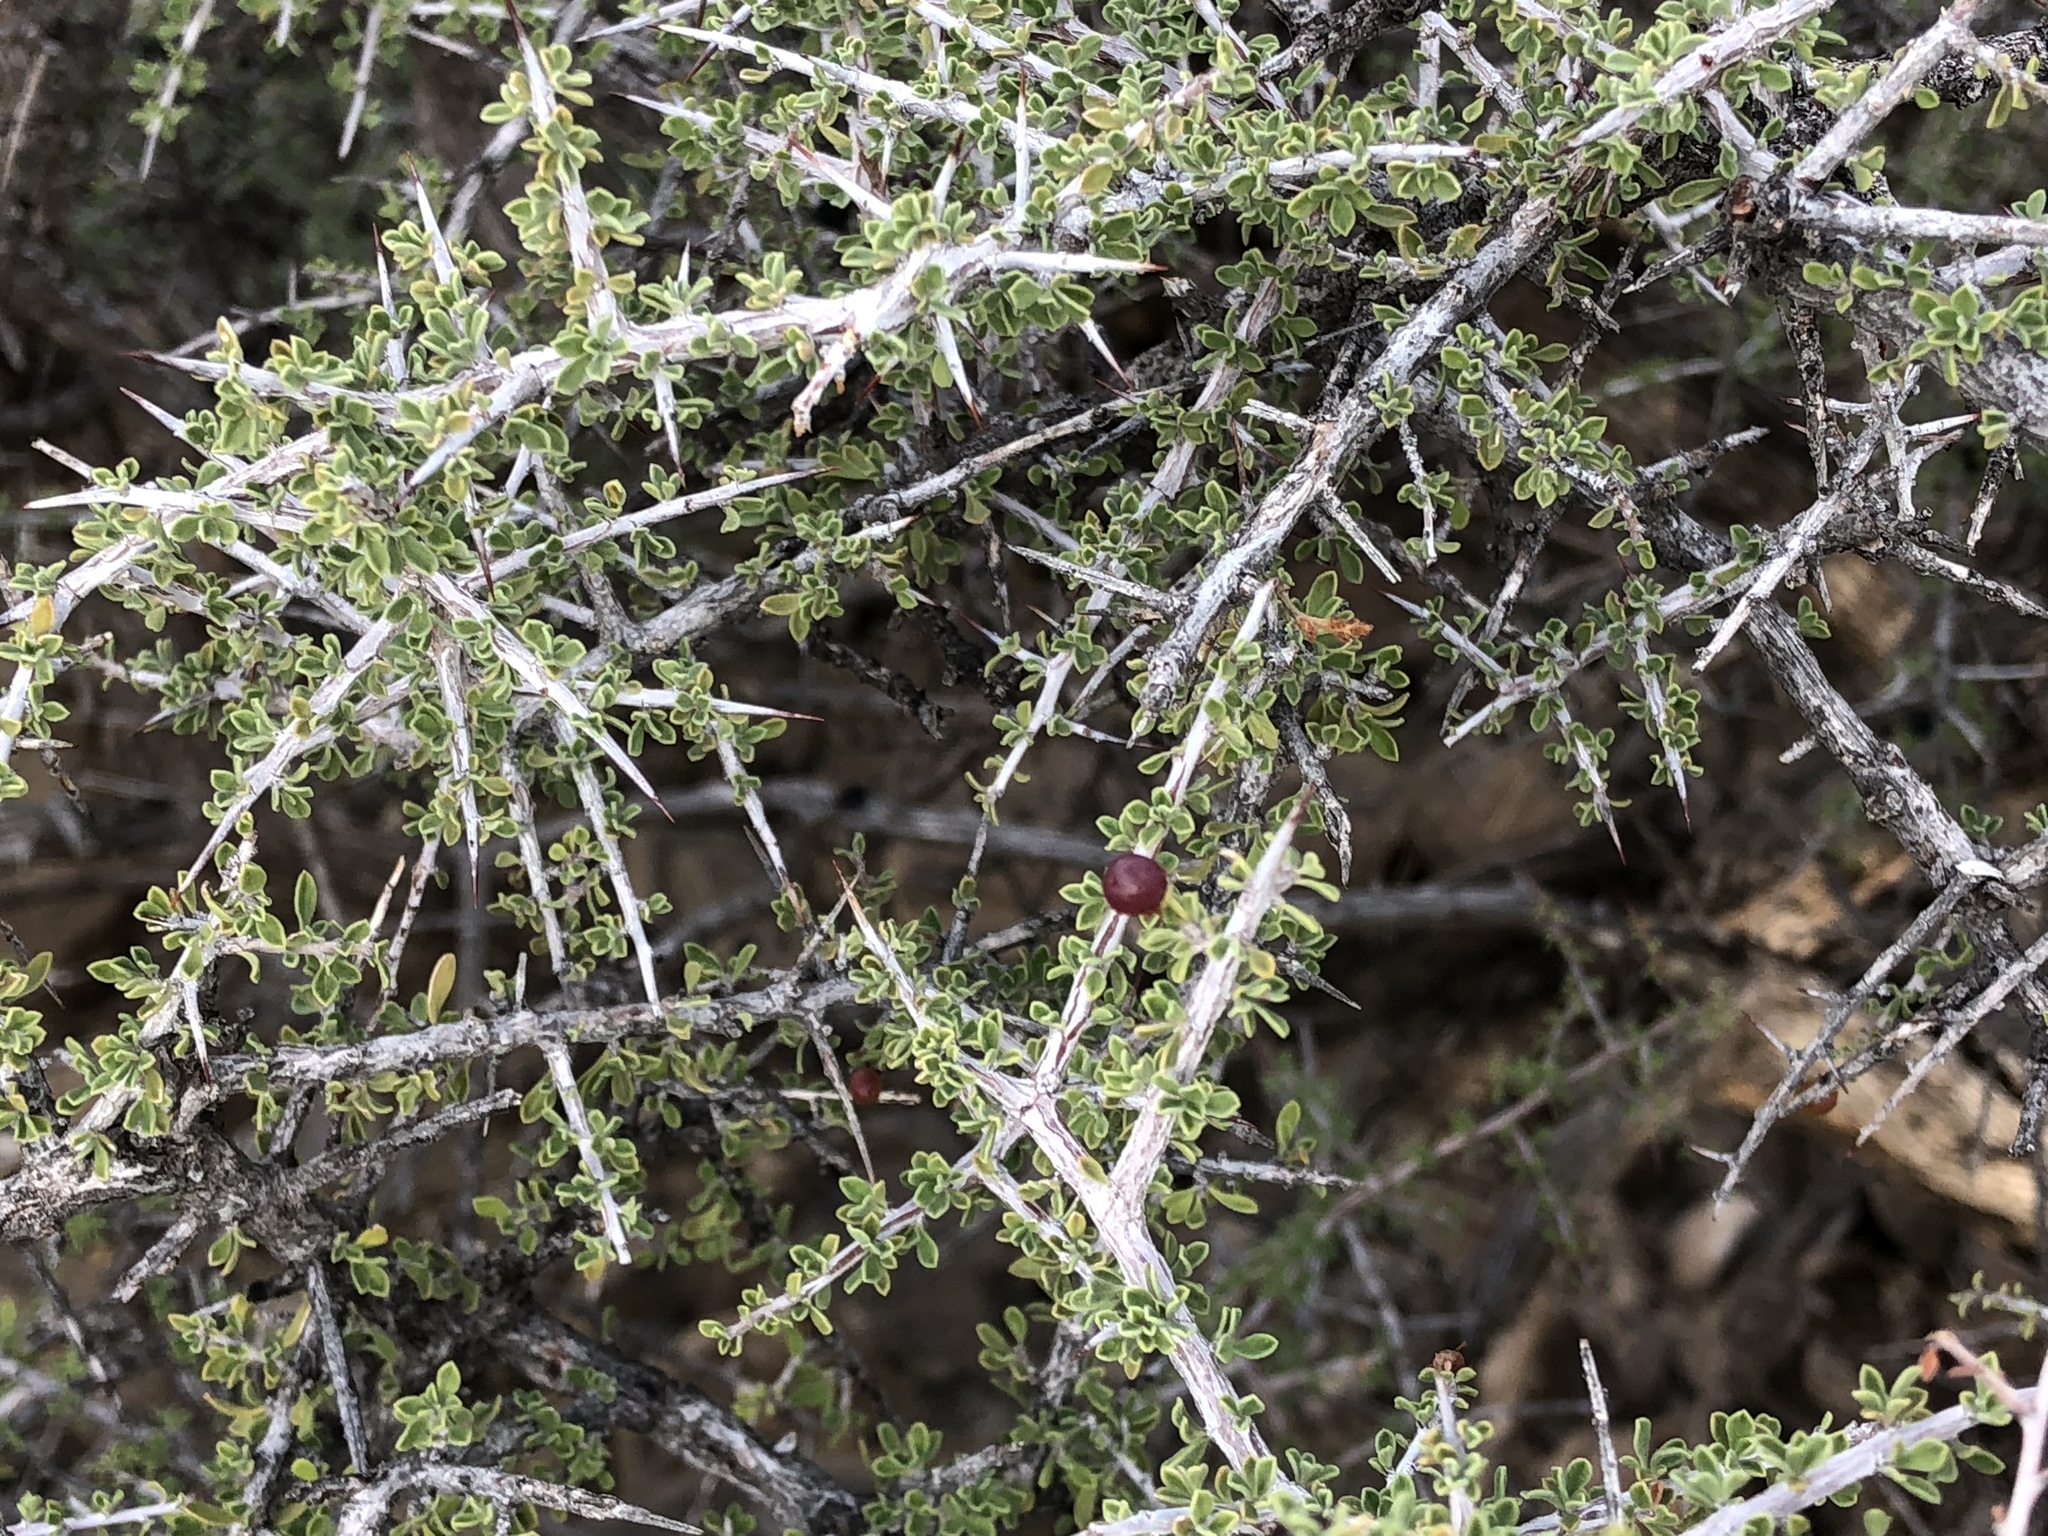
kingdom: Plantae
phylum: Tracheophyta
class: Magnoliopsida
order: Rosales
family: Rhamnaceae
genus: Condalia
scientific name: Condalia warnockii
